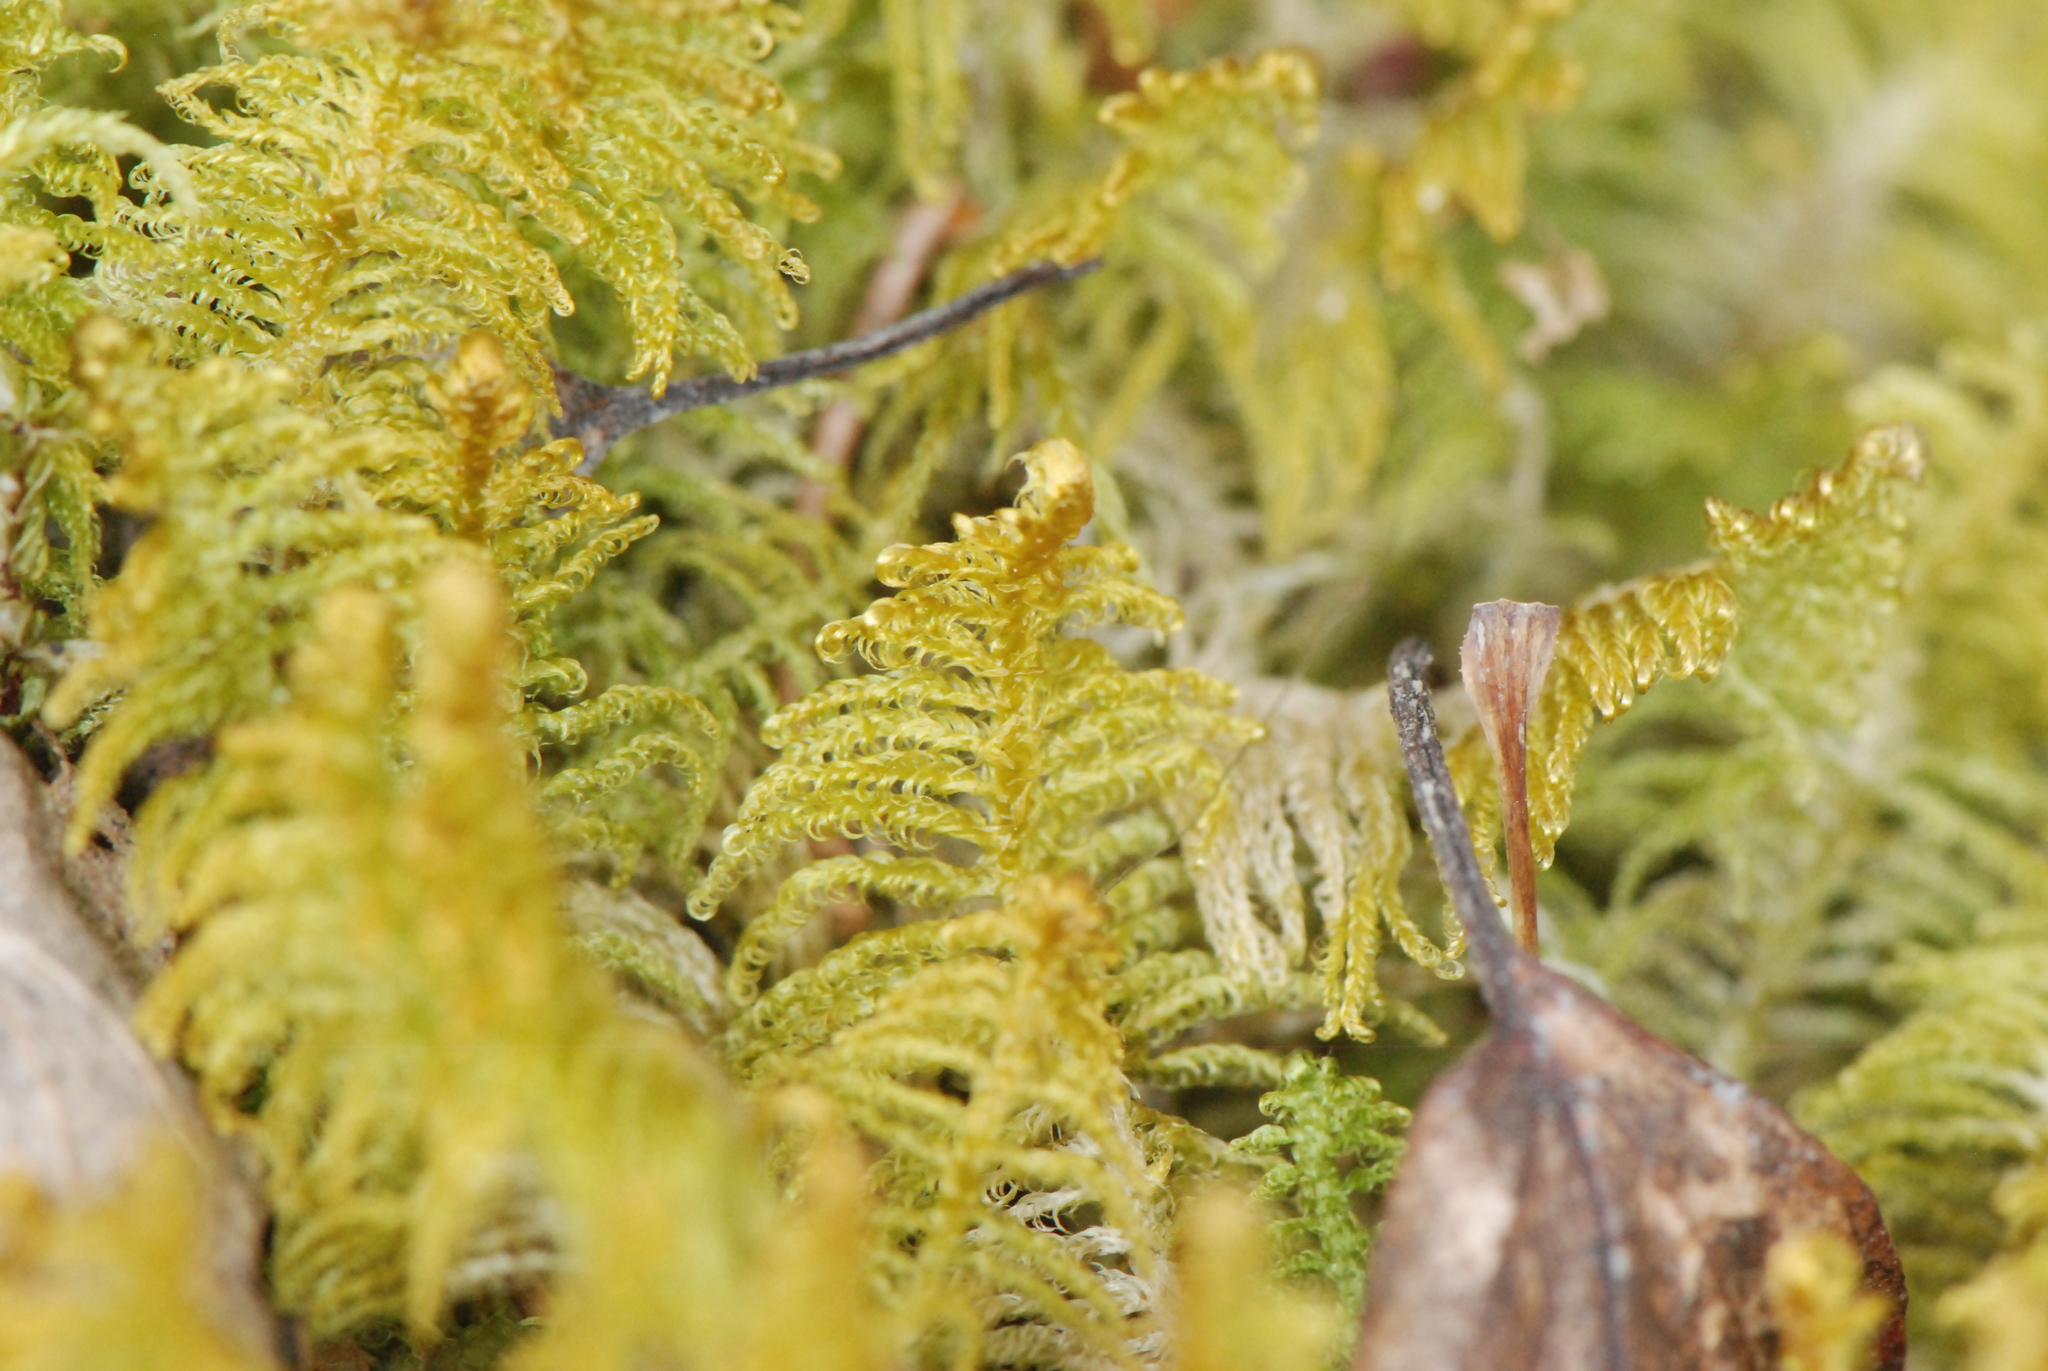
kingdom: Plantae
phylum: Bryophyta
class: Bryopsida
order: Hypnales
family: Pylaisiaceae
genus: Ptilium
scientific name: Ptilium crista-castrensis
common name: Knight's plume moss
